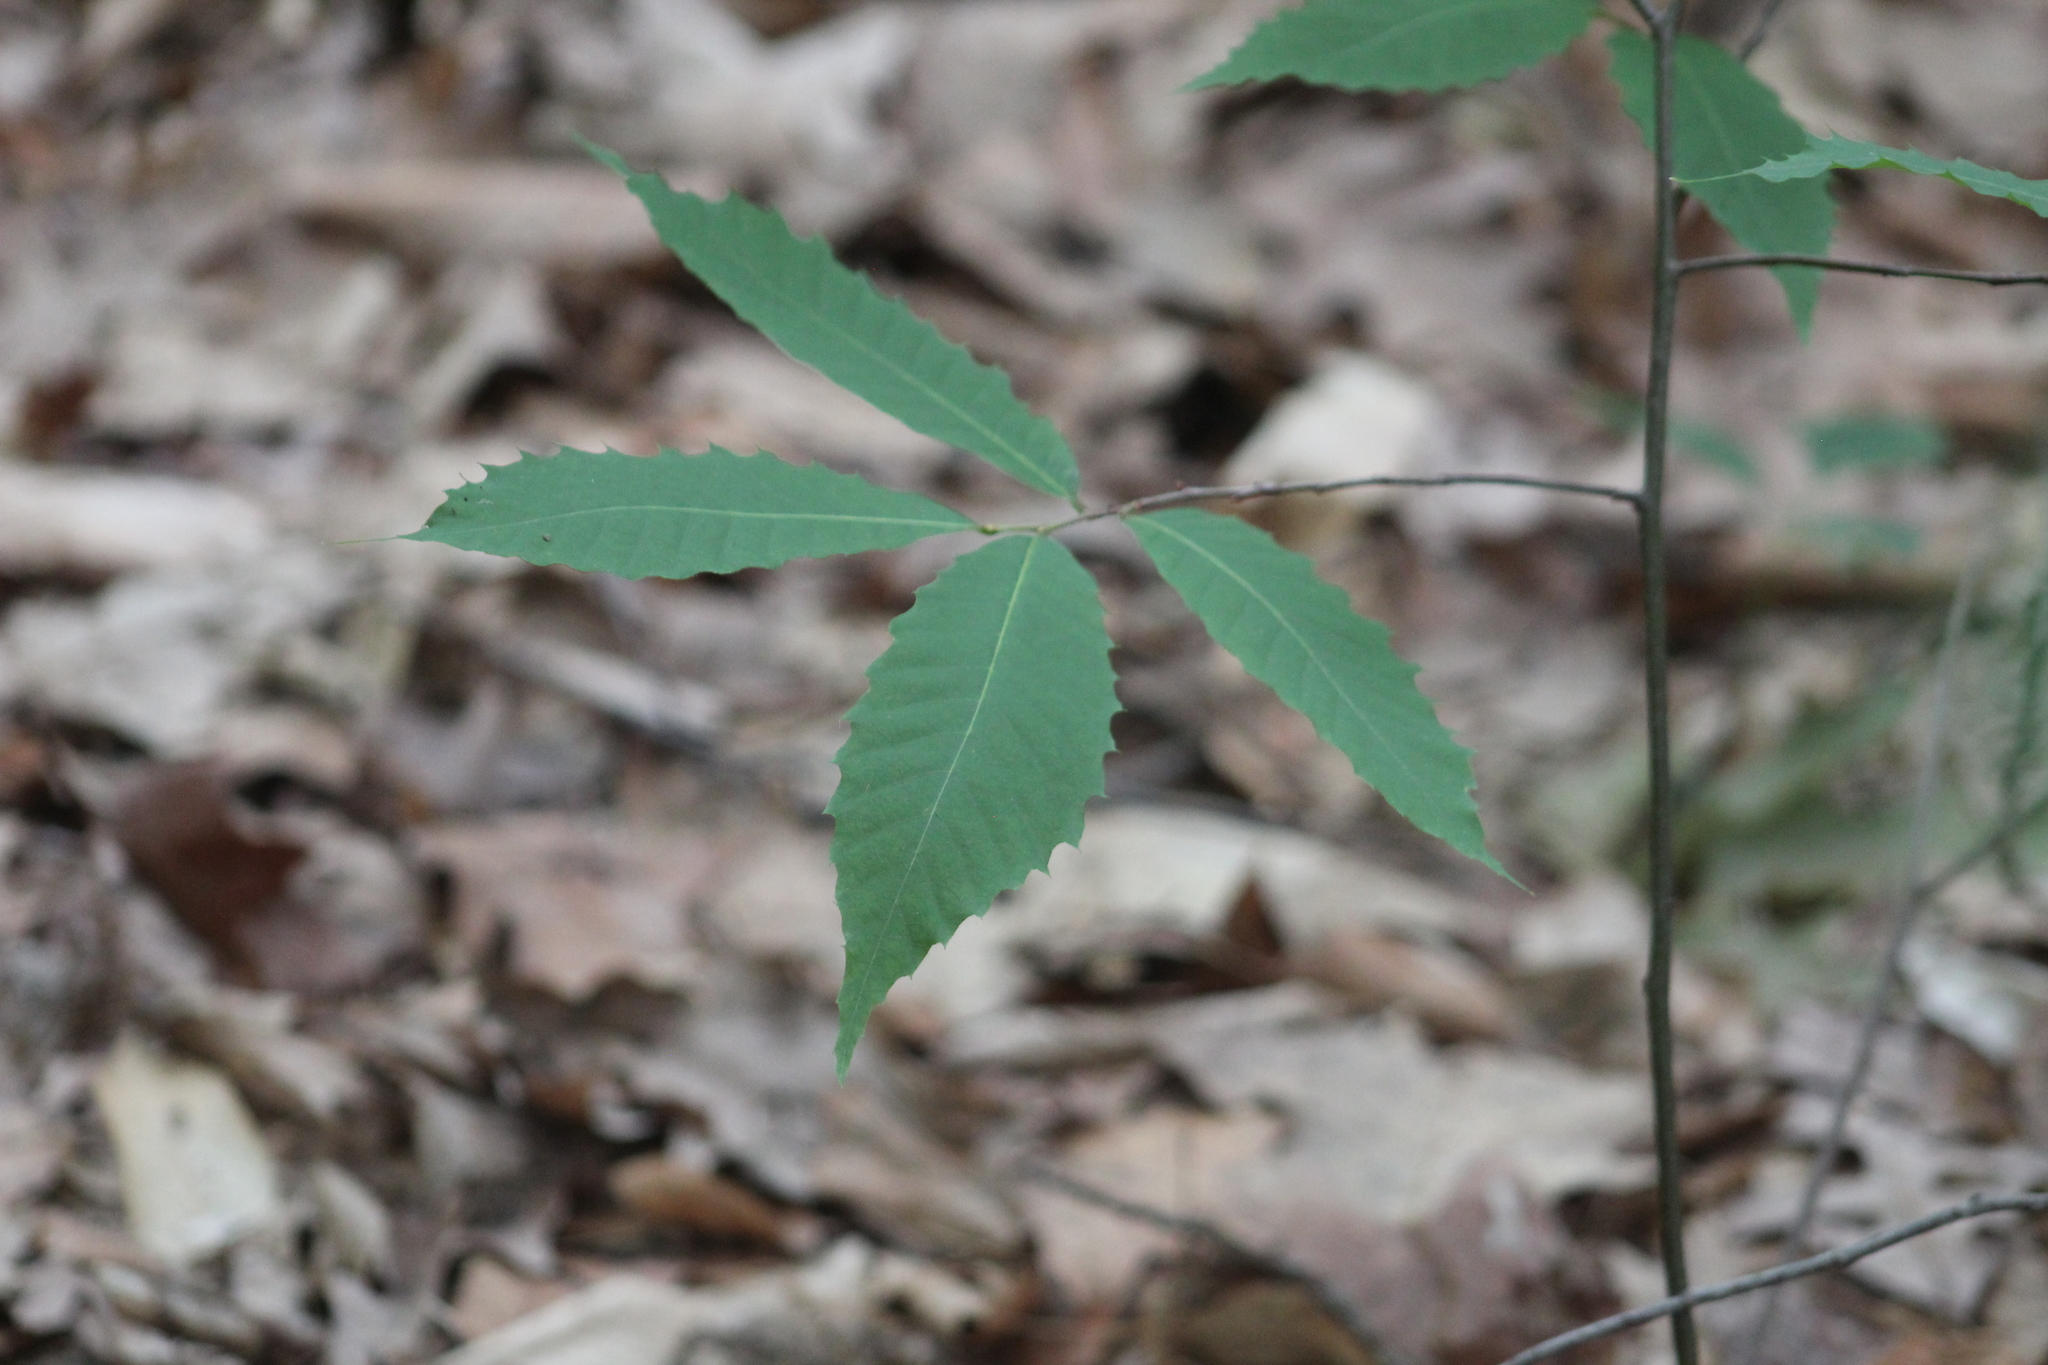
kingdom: Plantae
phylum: Tracheophyta
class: Magnoliopsida
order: Fagales
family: Fagaceae
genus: Castanea
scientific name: Castanea dentata
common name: American chestnut
